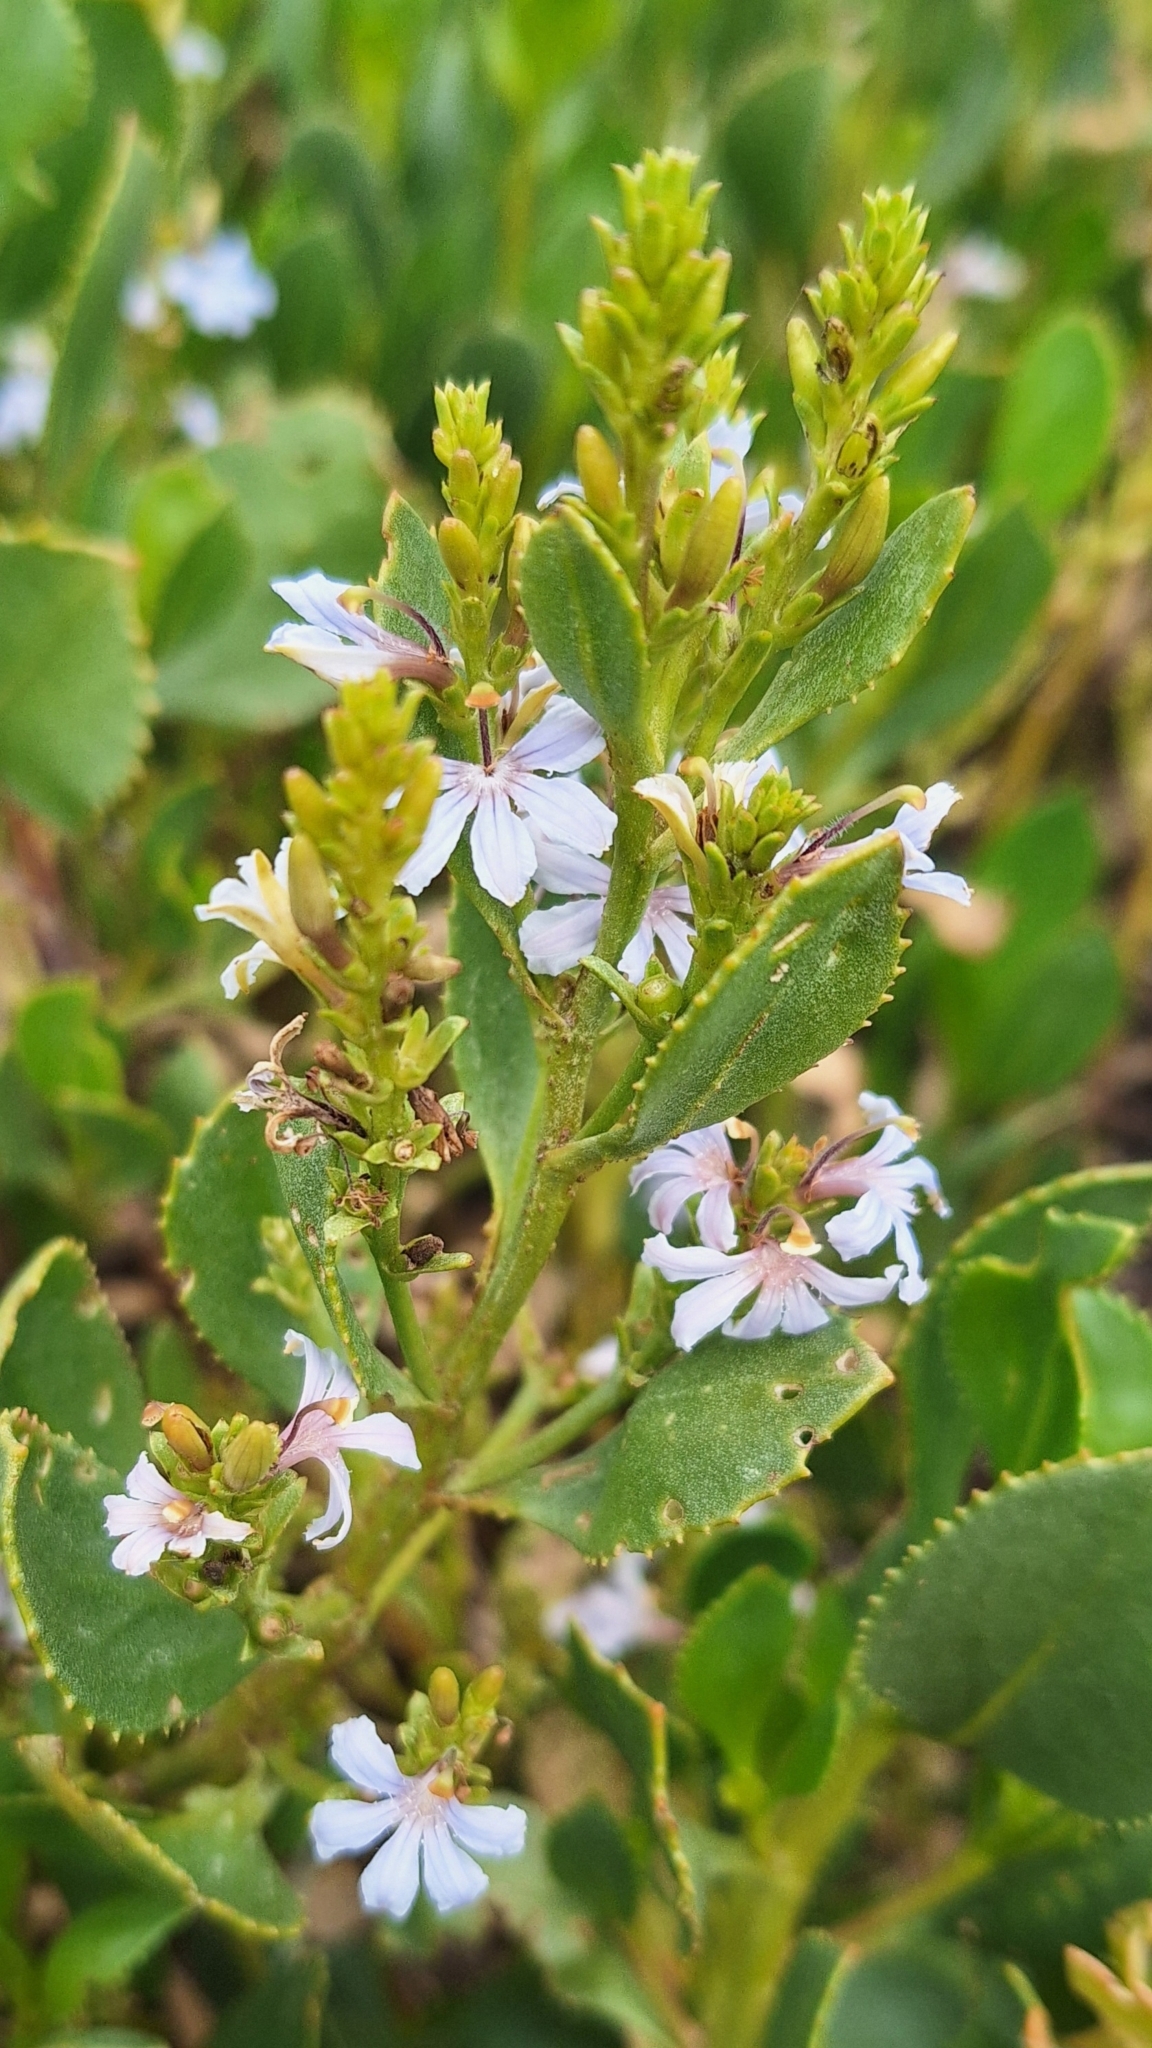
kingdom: Plantae
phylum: Tracheophyta
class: Magnoliopsida
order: Asterales
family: Goodeniaceae
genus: Scaevola
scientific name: Scaevola crassifolia
